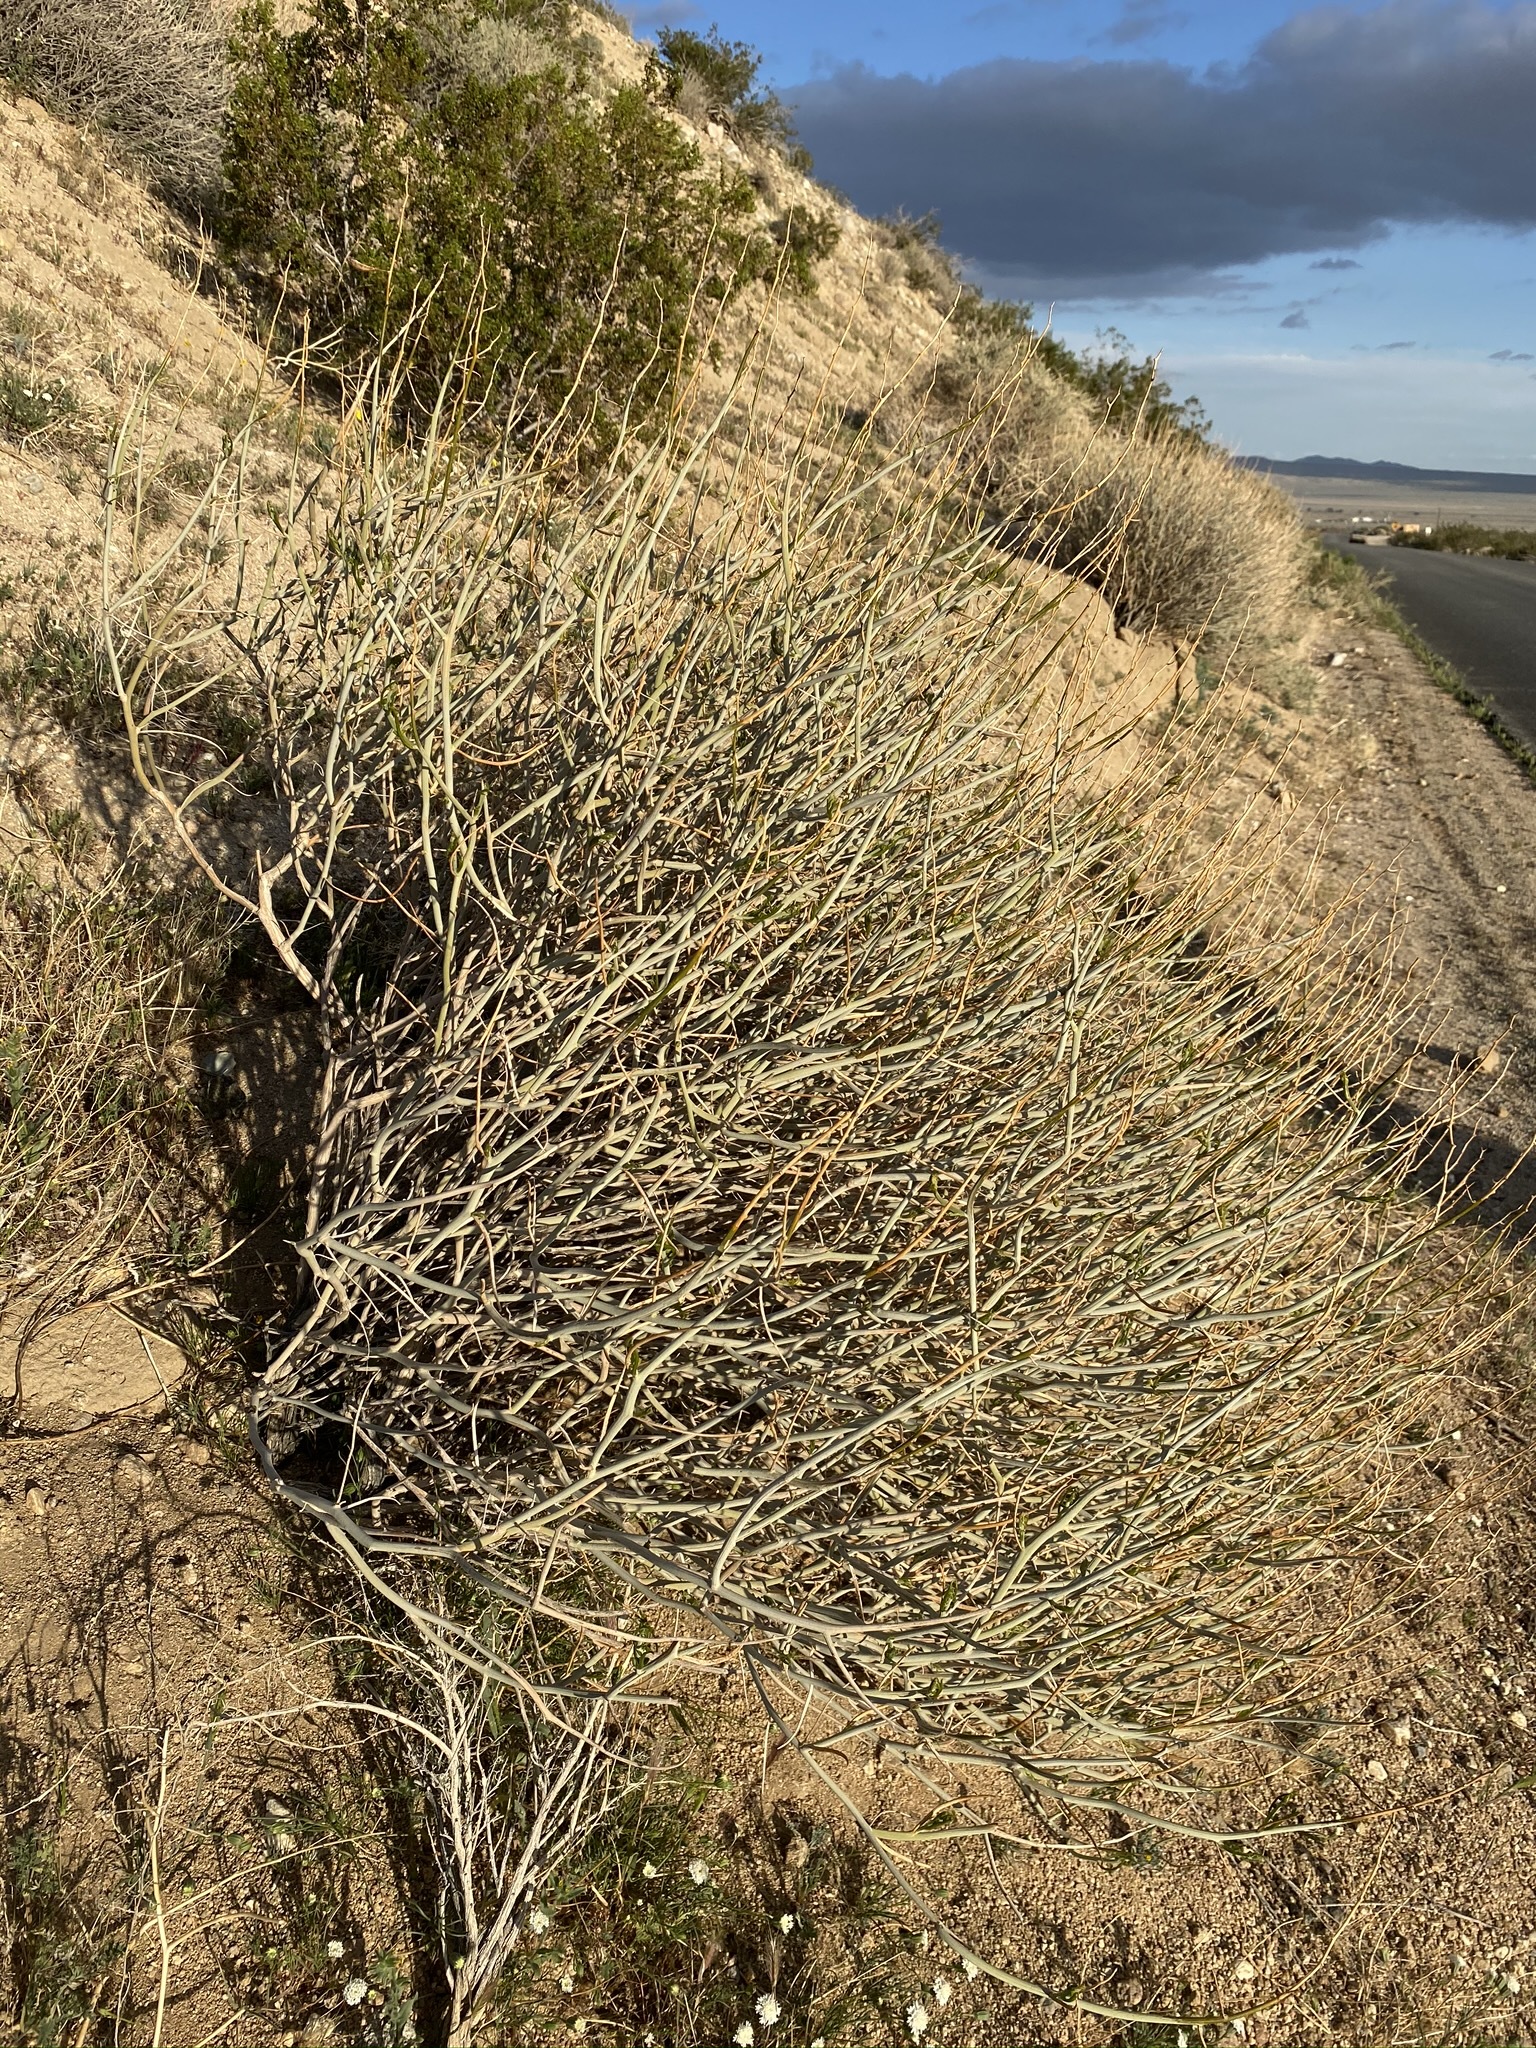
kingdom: Plantae
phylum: Tracheophyta
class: Magnoliopsida
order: Fabales
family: Fabaceae
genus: Senna
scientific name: Senna armata
